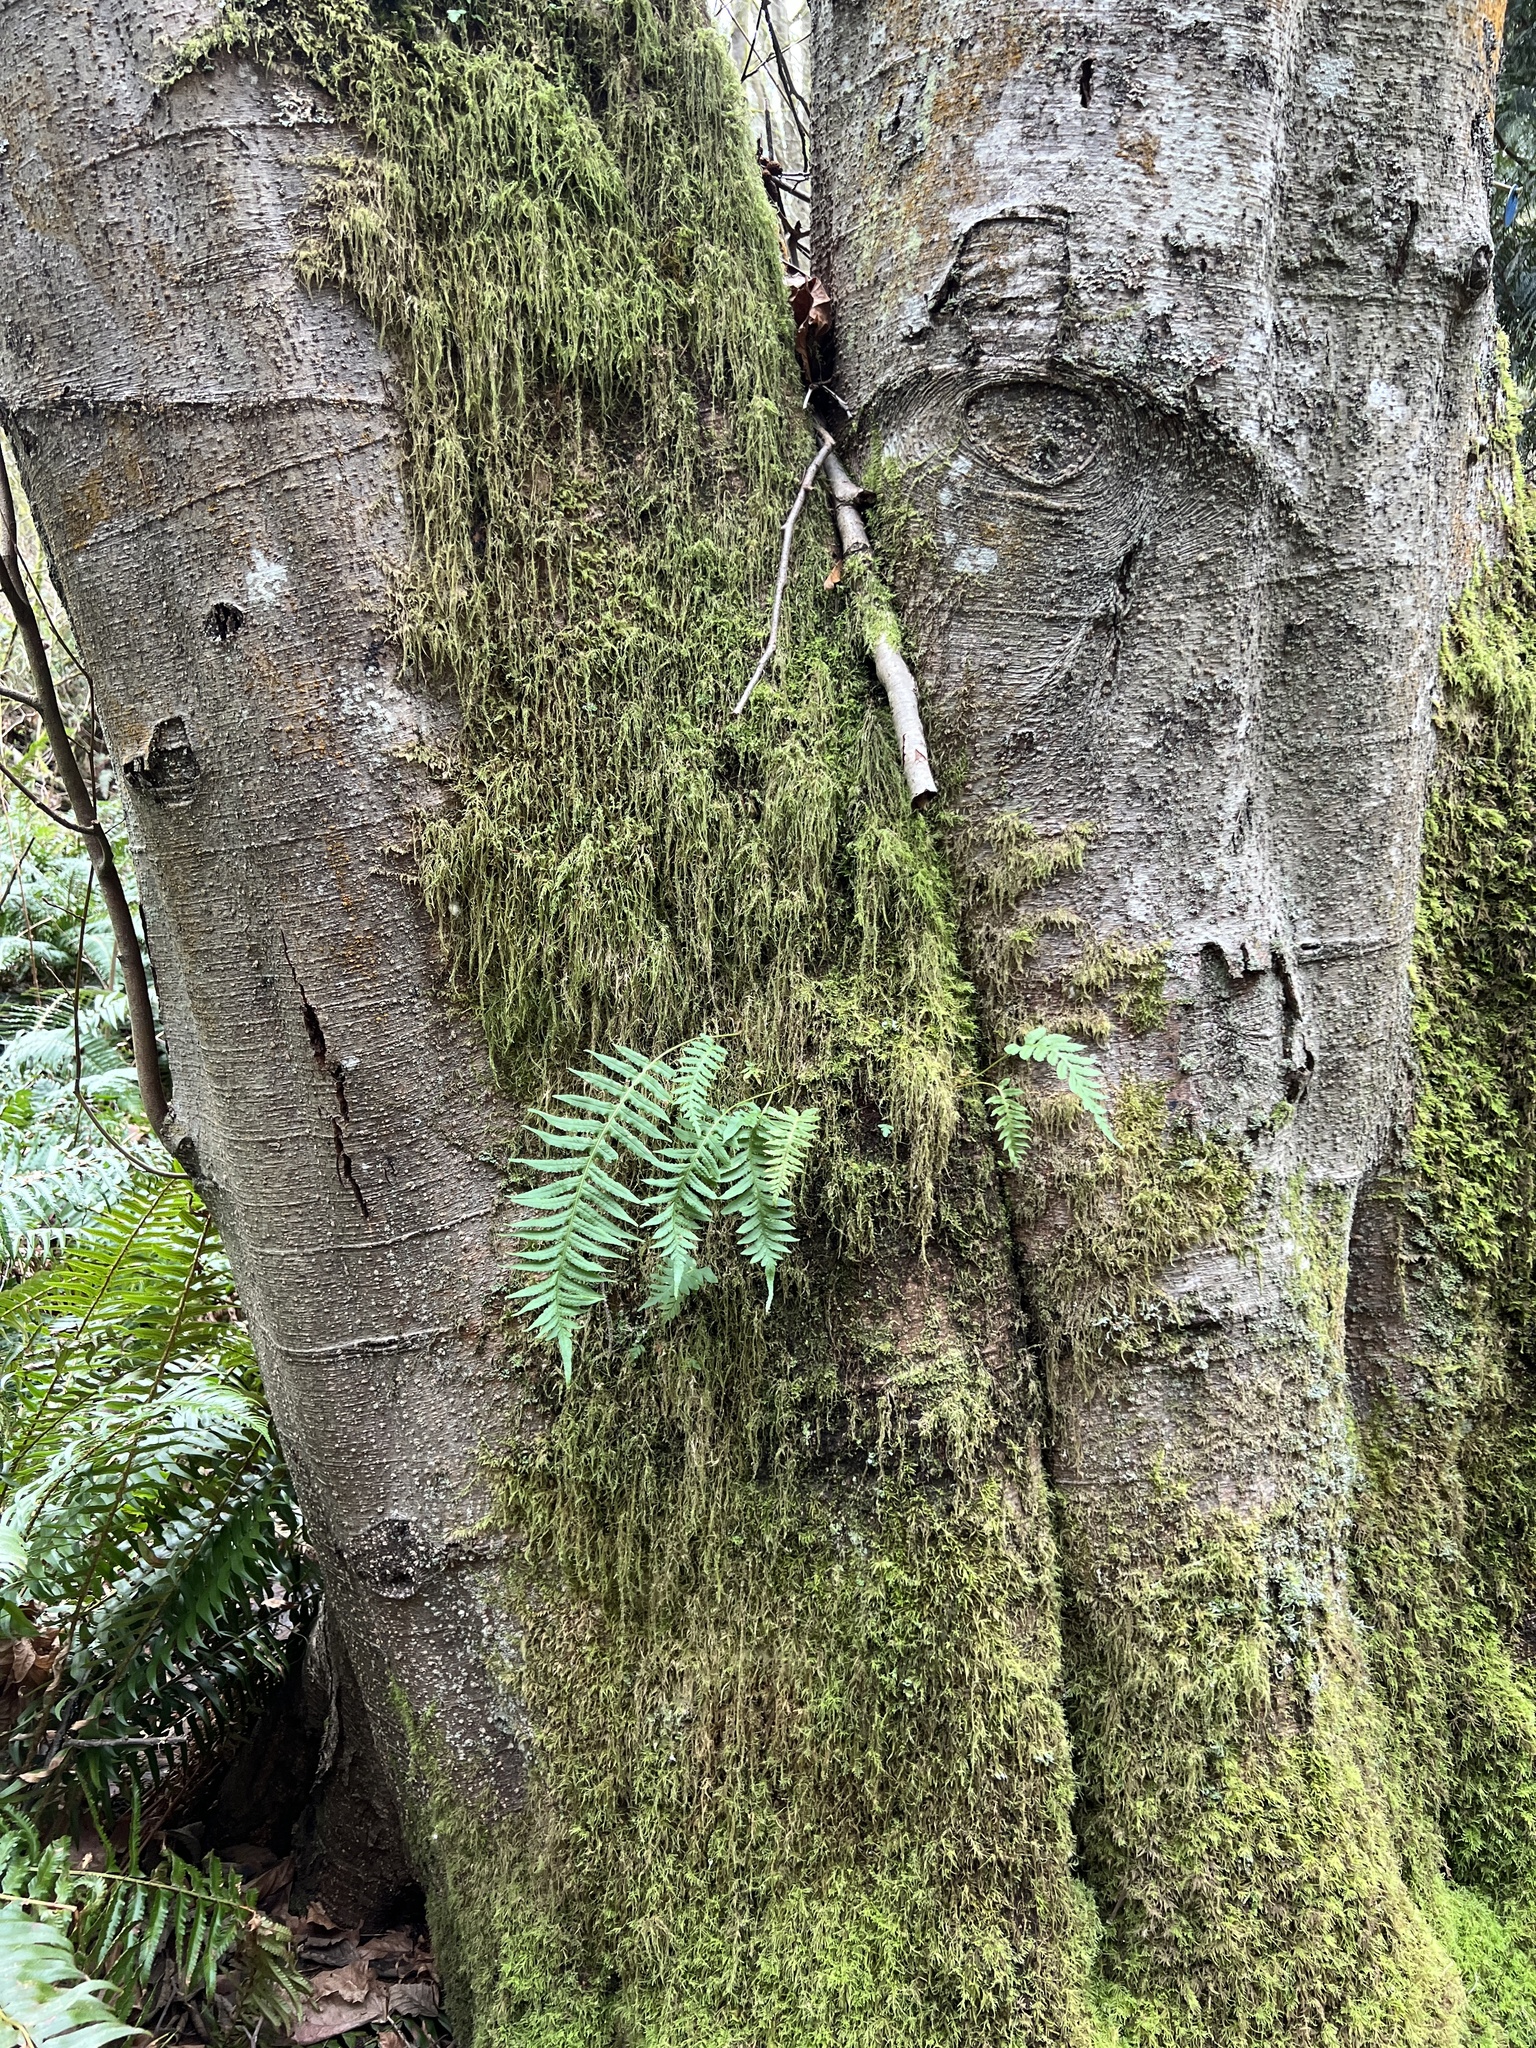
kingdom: Plantae
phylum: Tracheophyta
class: Polypodiopsida
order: Polypodiales
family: Polypodiaceae
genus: Polypodium
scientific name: Polypodium glycyrrhiza
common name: Licorice fern
